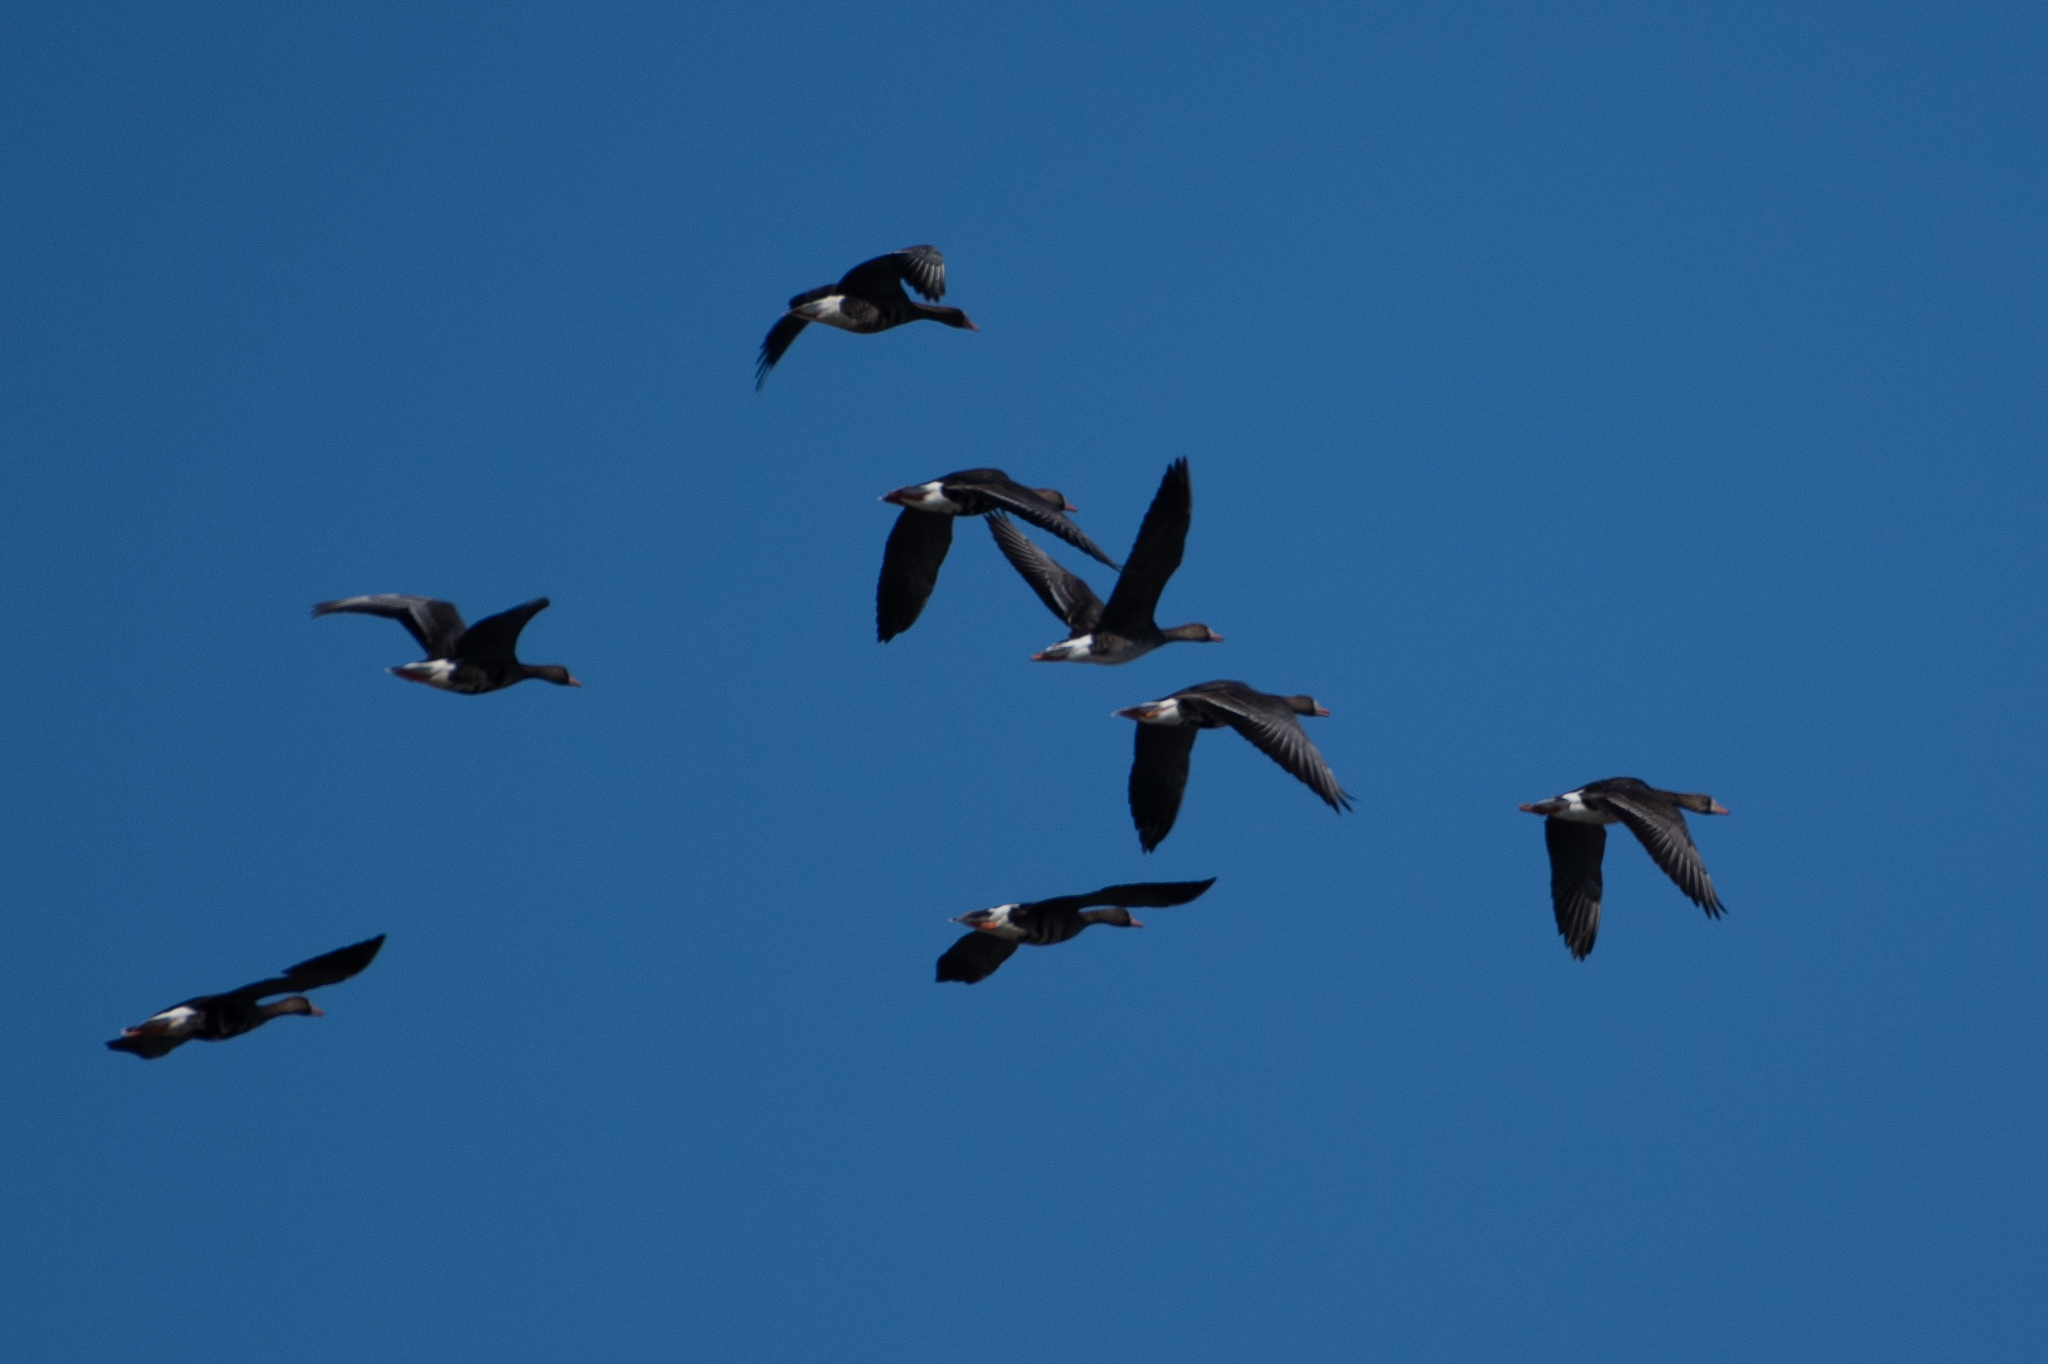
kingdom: Animalia
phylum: Chordata
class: Aves
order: Anseriformes
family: Anatidae
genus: Anser
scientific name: Anser albifrons
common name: Greater white-fronted goose
